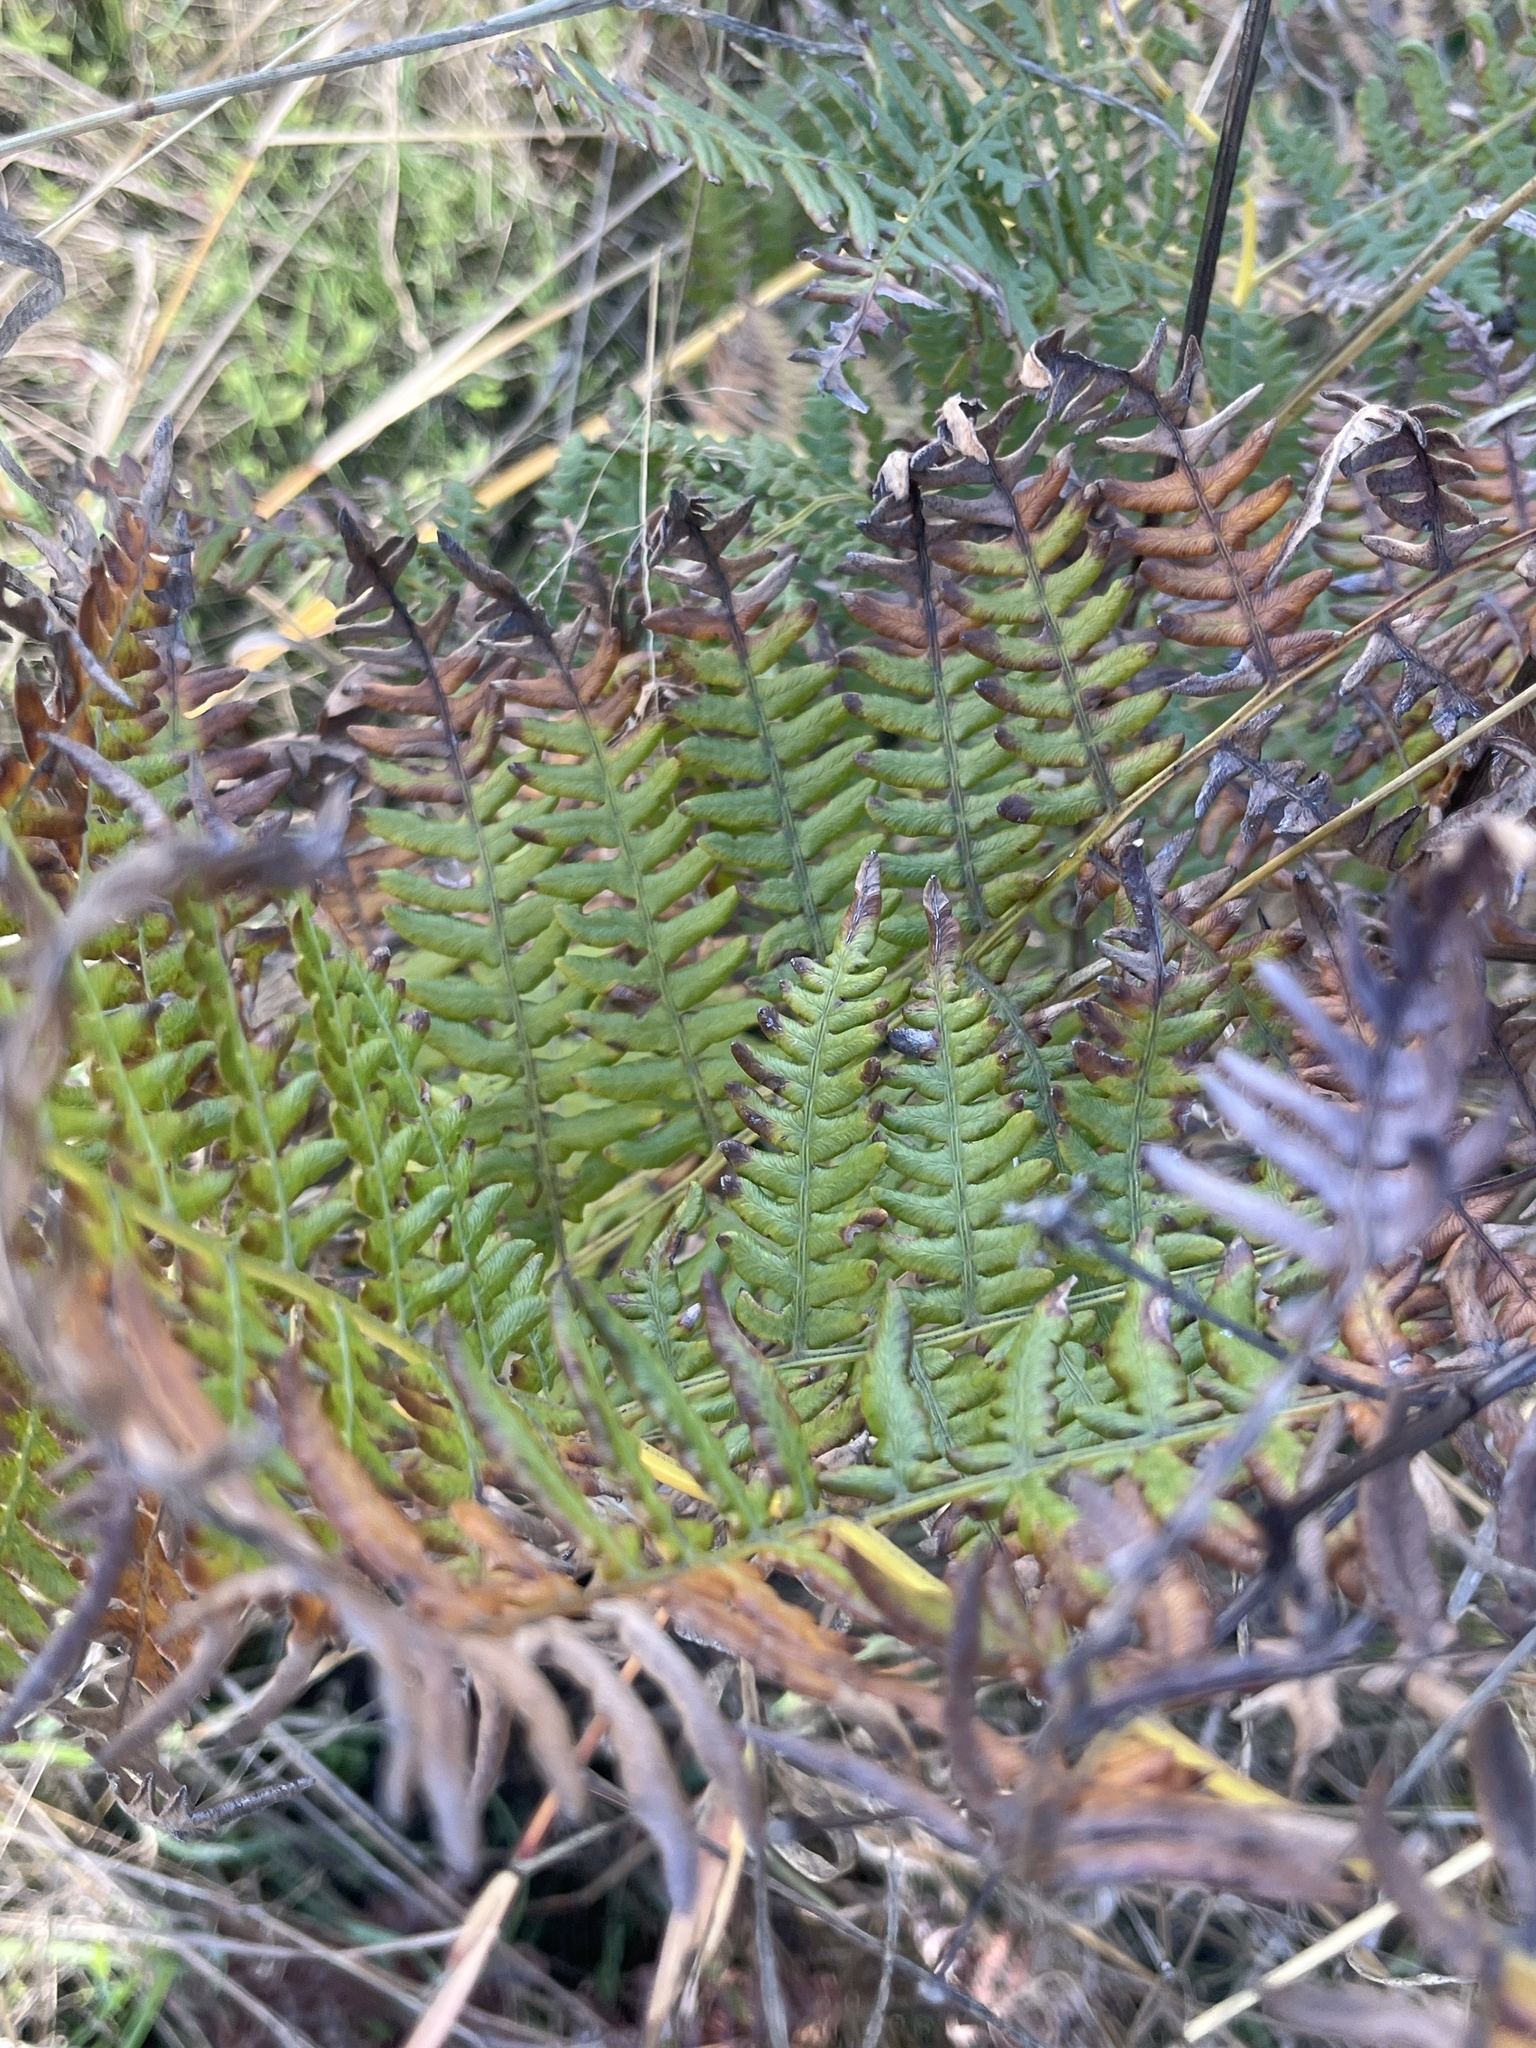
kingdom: Plantae
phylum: Tracheophyta
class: Polypodiopsida
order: Polypodiales
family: Dennstaedtiaceae
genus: Pteridium
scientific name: Pteridium aquilinum
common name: Bracken
